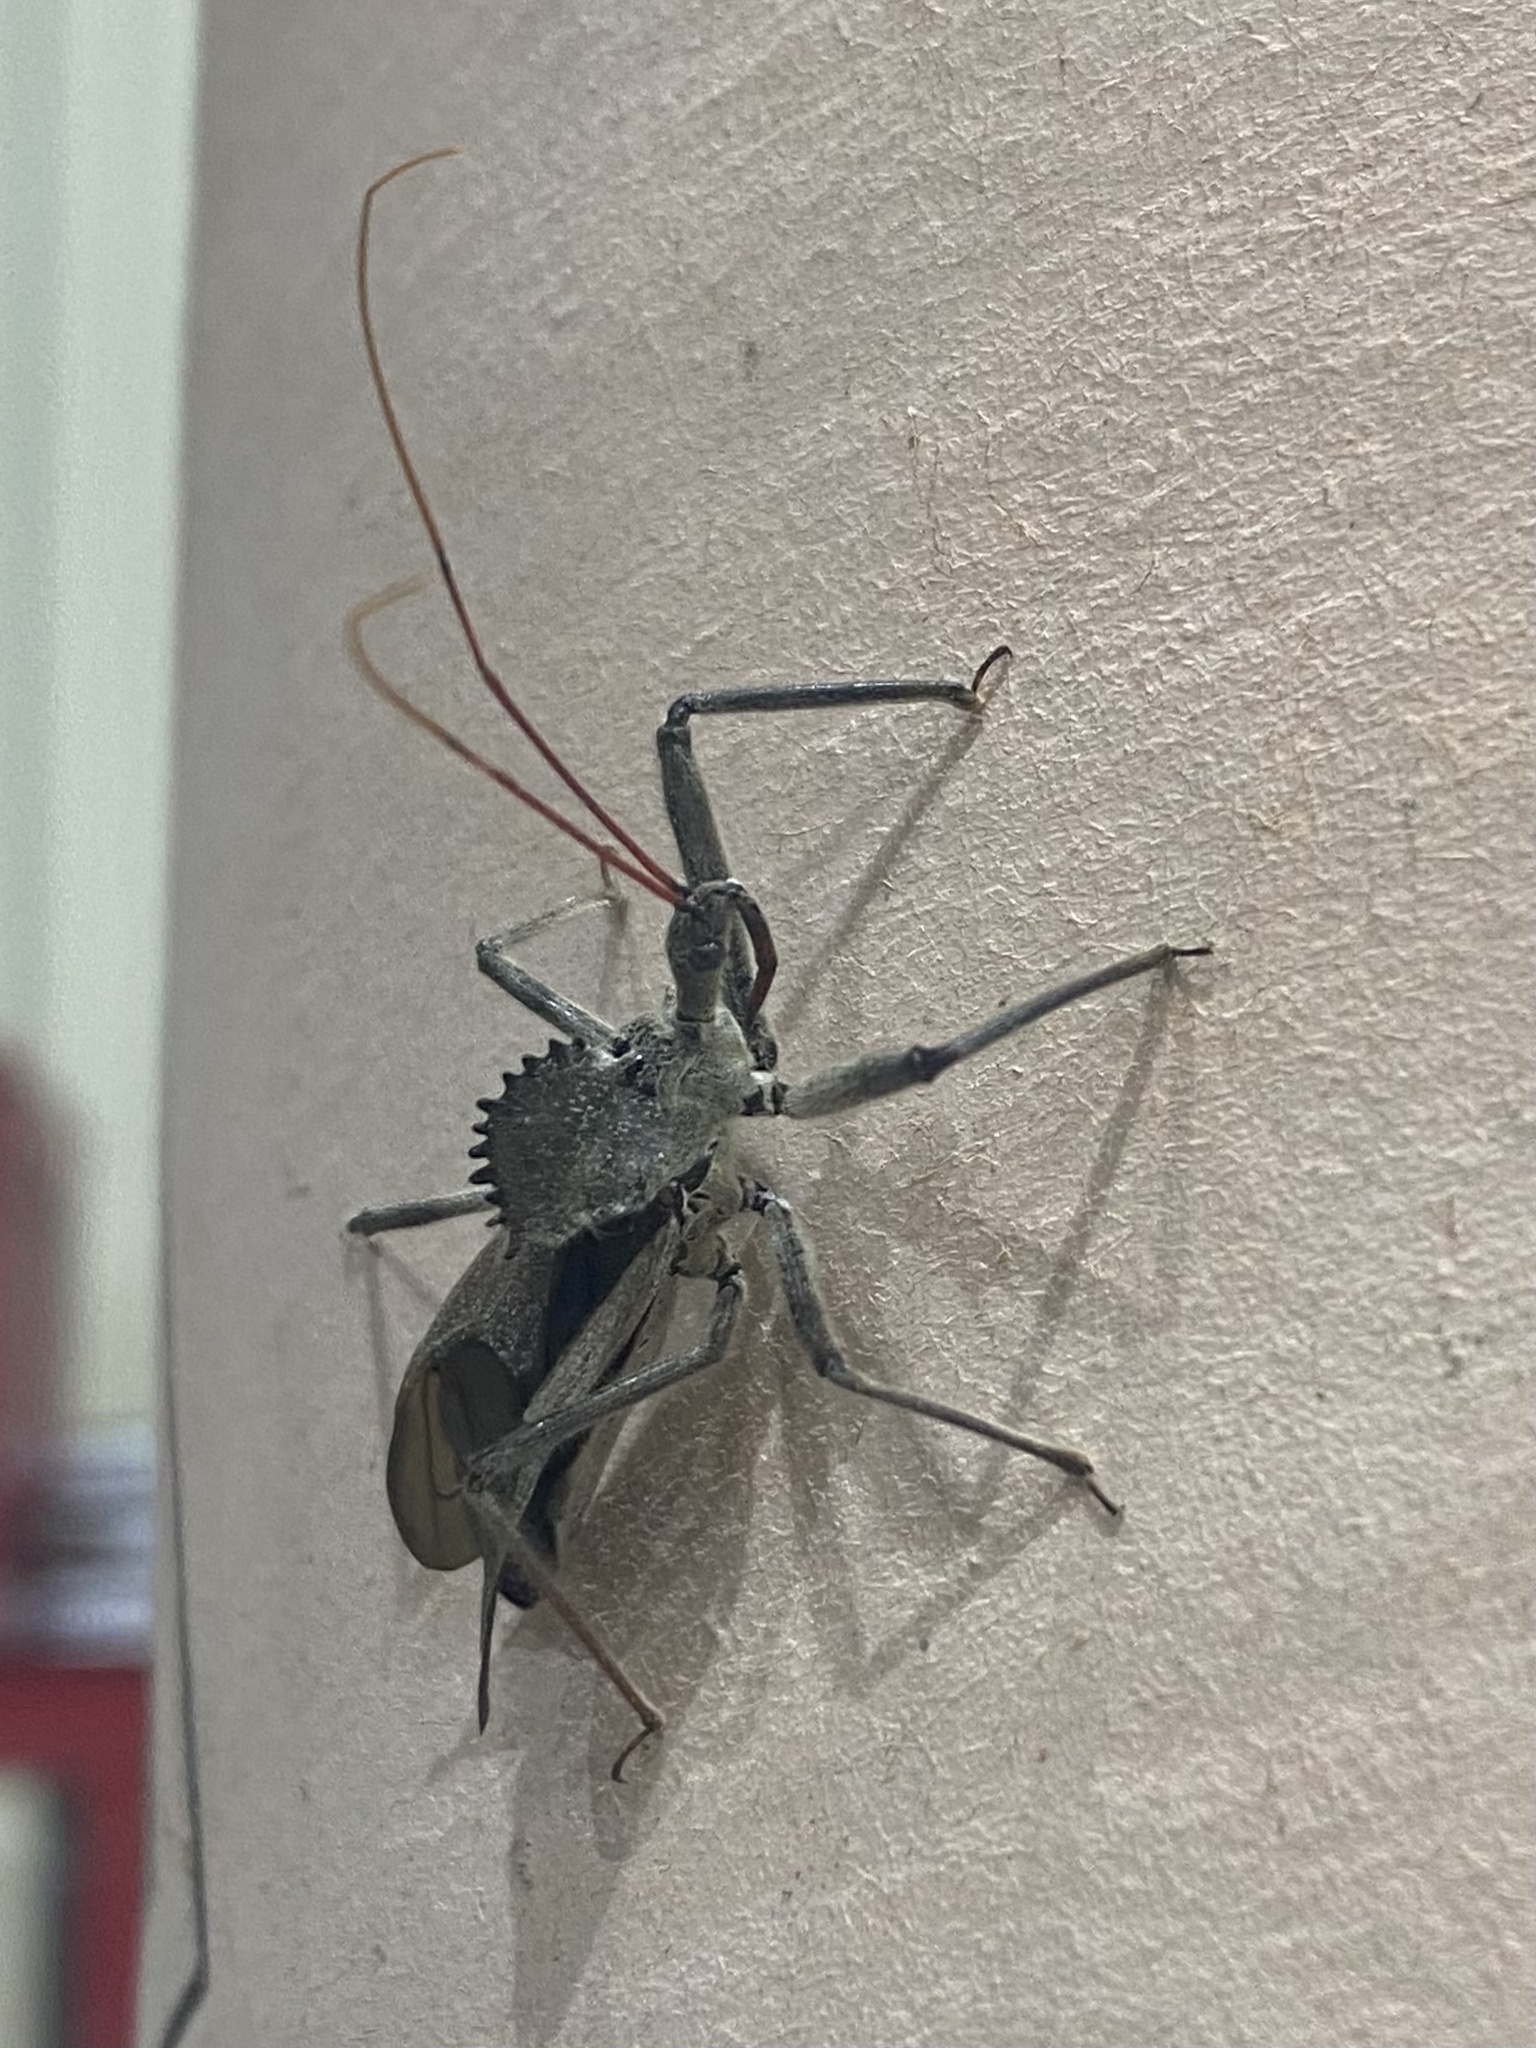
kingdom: Animalia
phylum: Arthropoda
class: Insecta
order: Hemiptera
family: Reduviidae
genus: Arilus
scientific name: Arilus cristatus
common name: North american wheel bug
